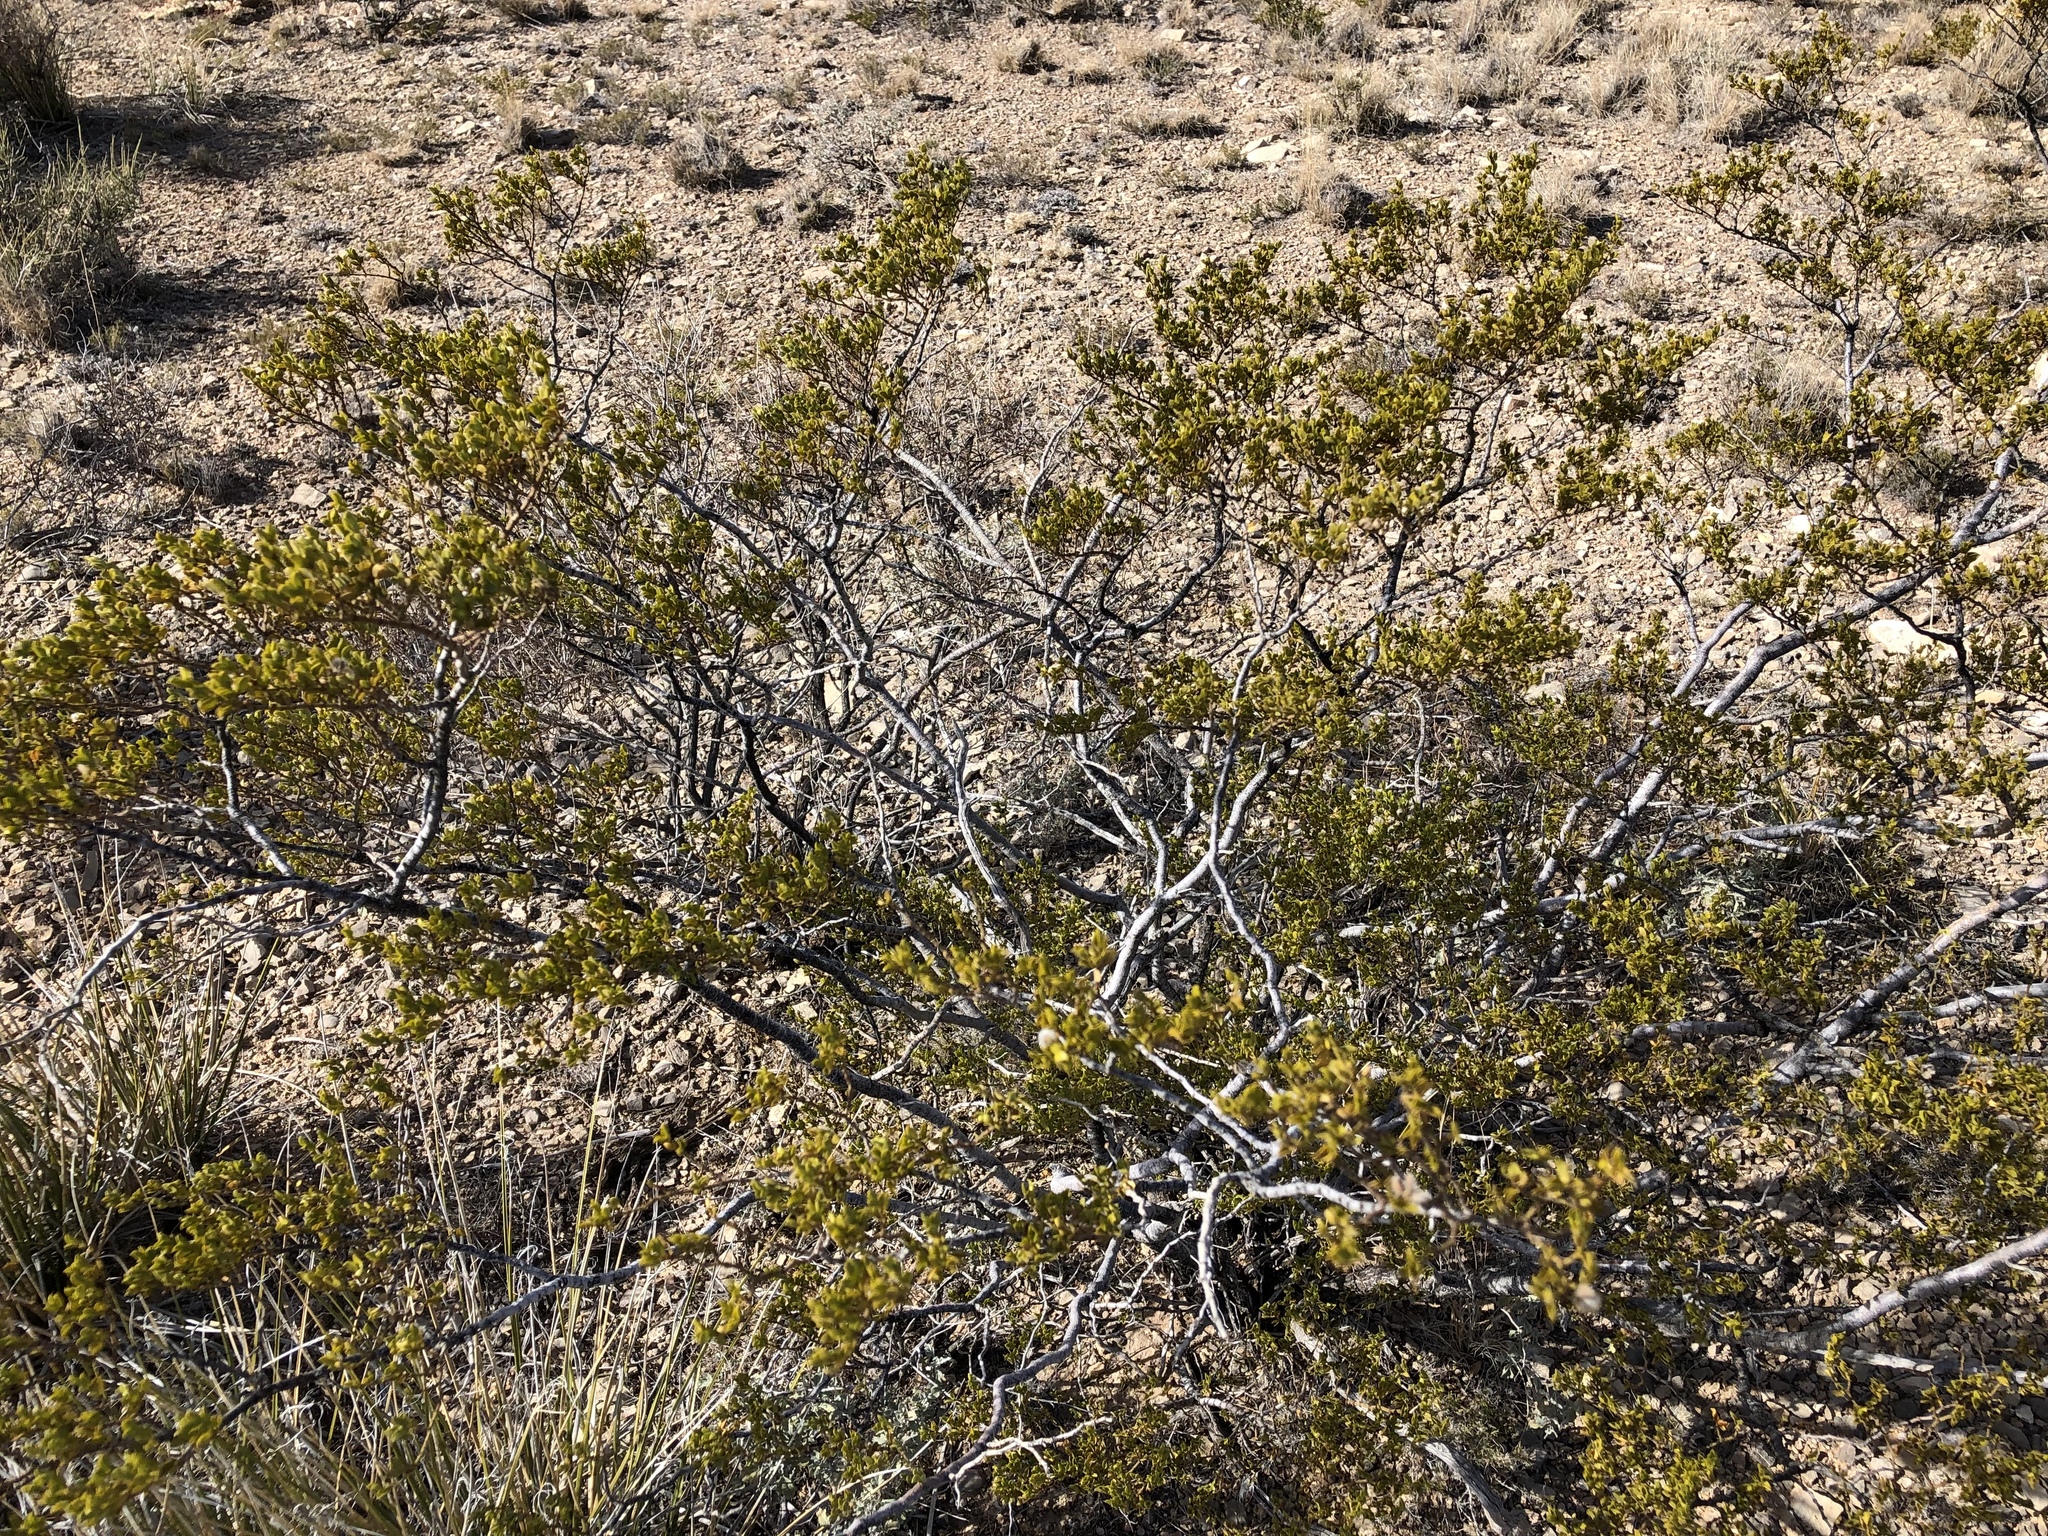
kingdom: Plantae
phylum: Tracheophyta
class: Magnoliopsida
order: Zygophyllales
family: Zygophyllaceae
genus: Larrea
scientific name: Larrea tridentata
